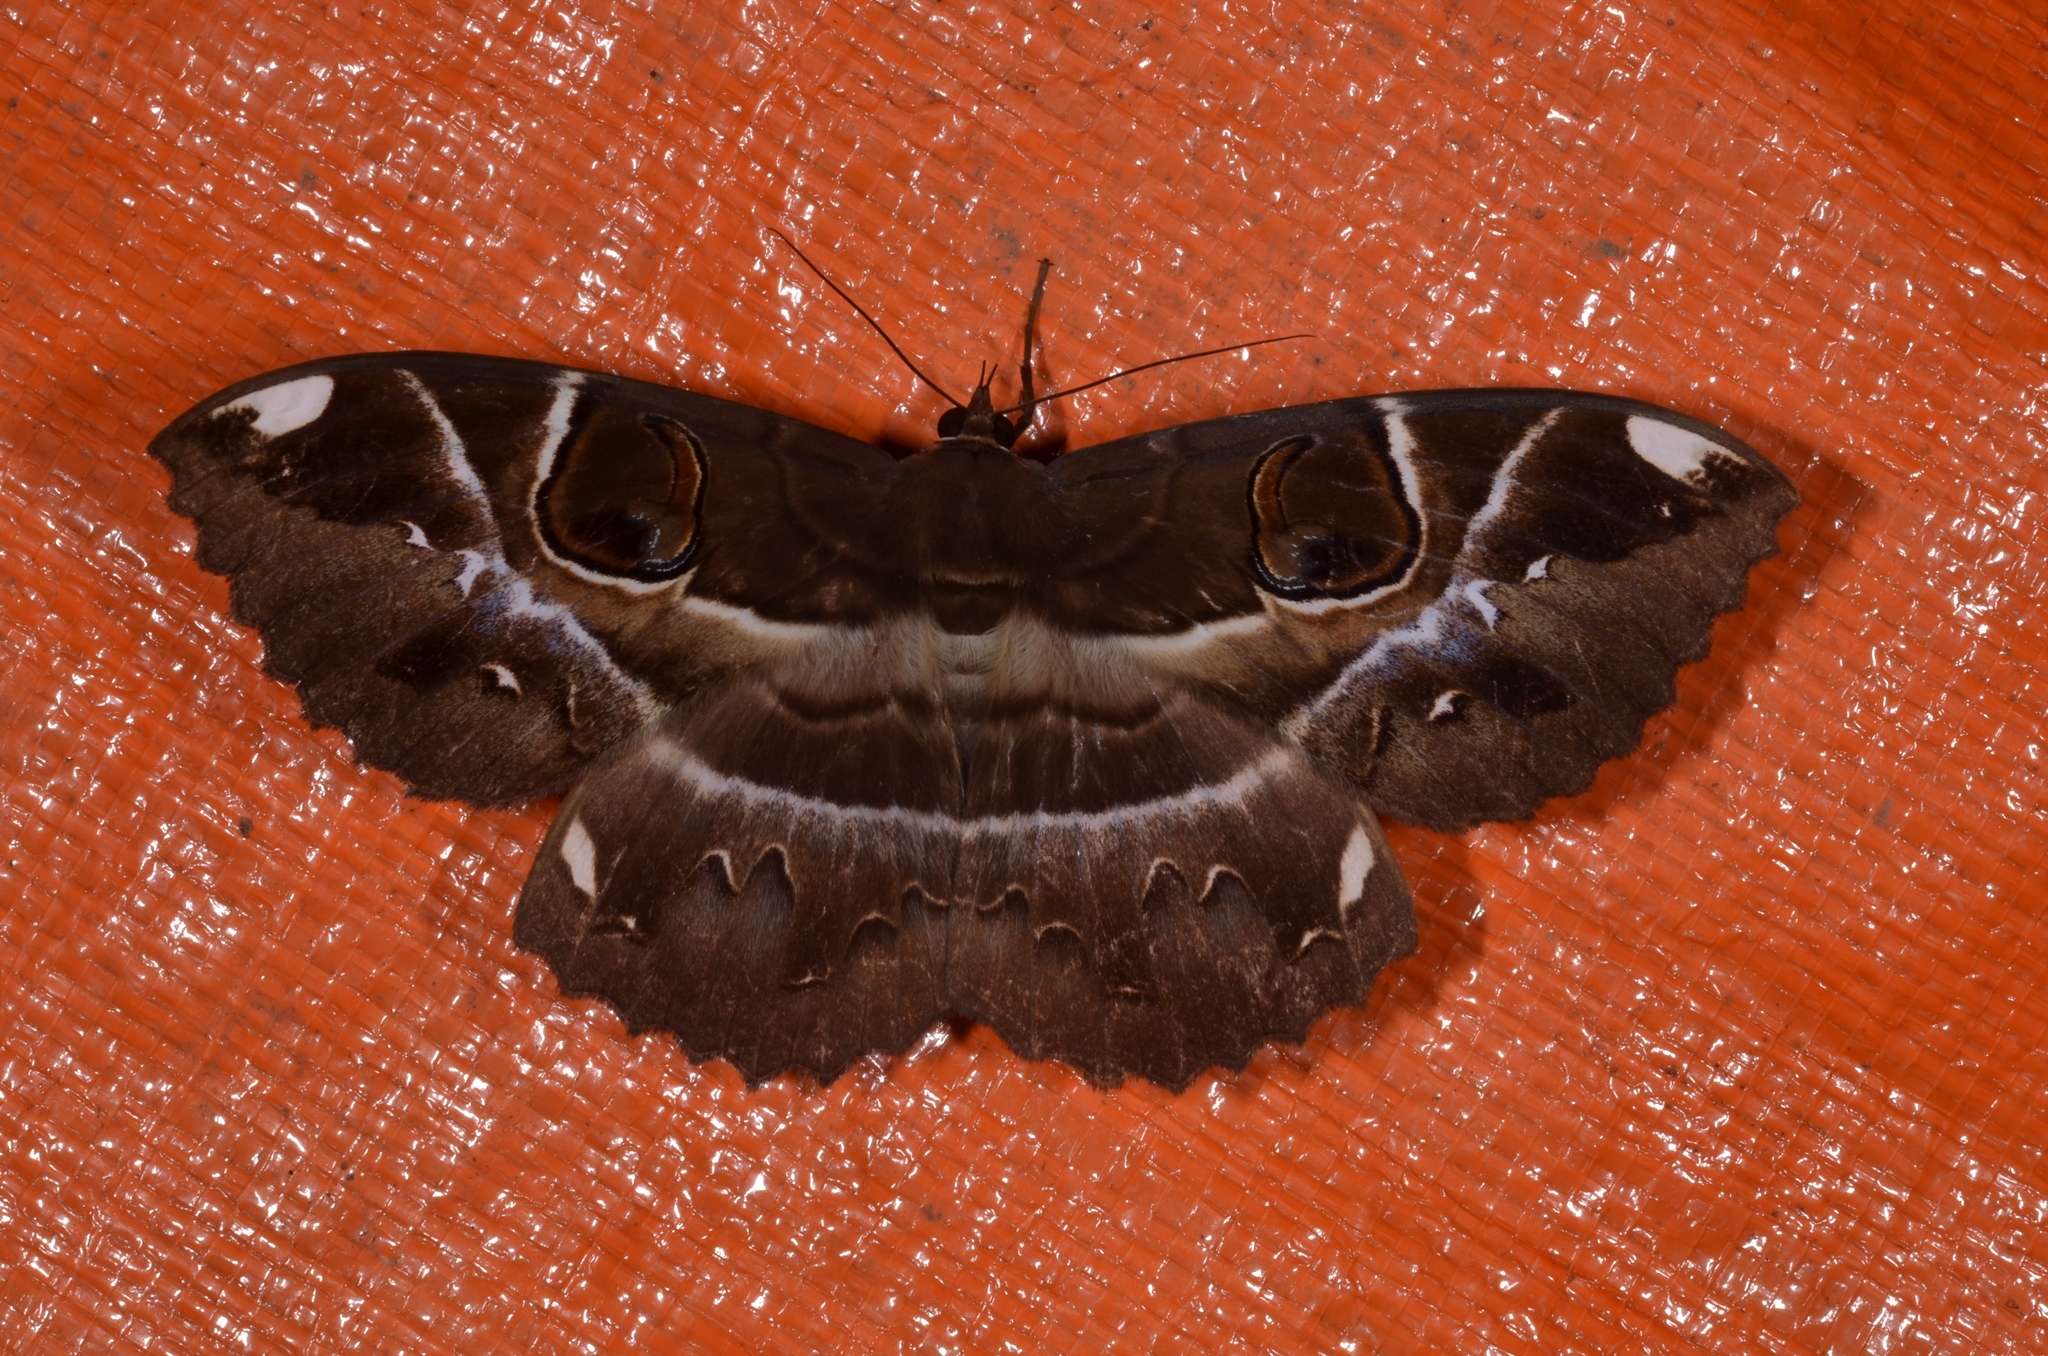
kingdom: Animalia
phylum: Arthropoda
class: Insecta
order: Lepidoptera
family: Erebidae
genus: Erebus
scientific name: Erebus ephesperis
